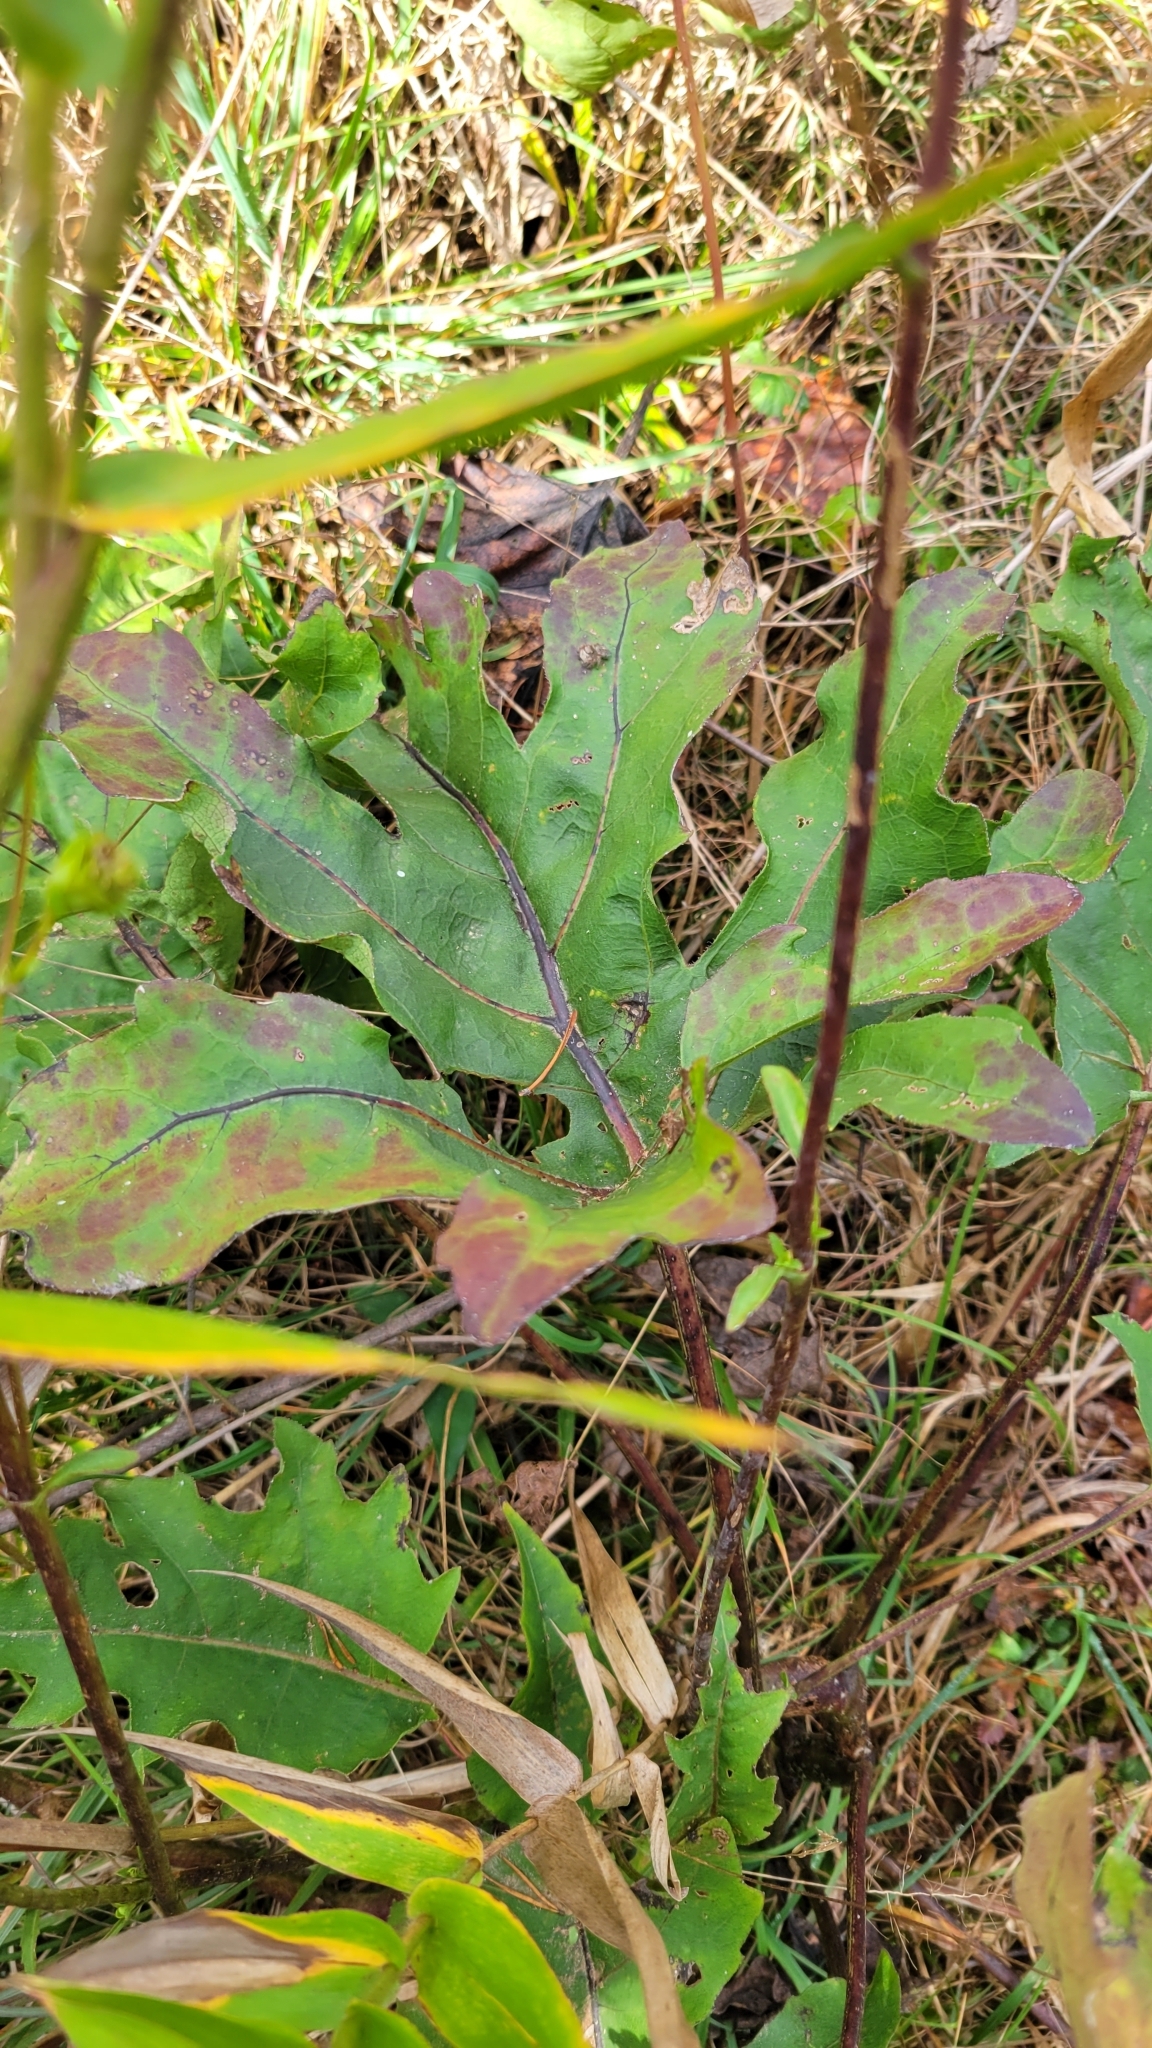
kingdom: Plantae
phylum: Tracheophyta
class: Magnoliopsida
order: Asterales
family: Asteraceae
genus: Silphium
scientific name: Silphium compositum
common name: Lesser basal-leaf rosinweed
